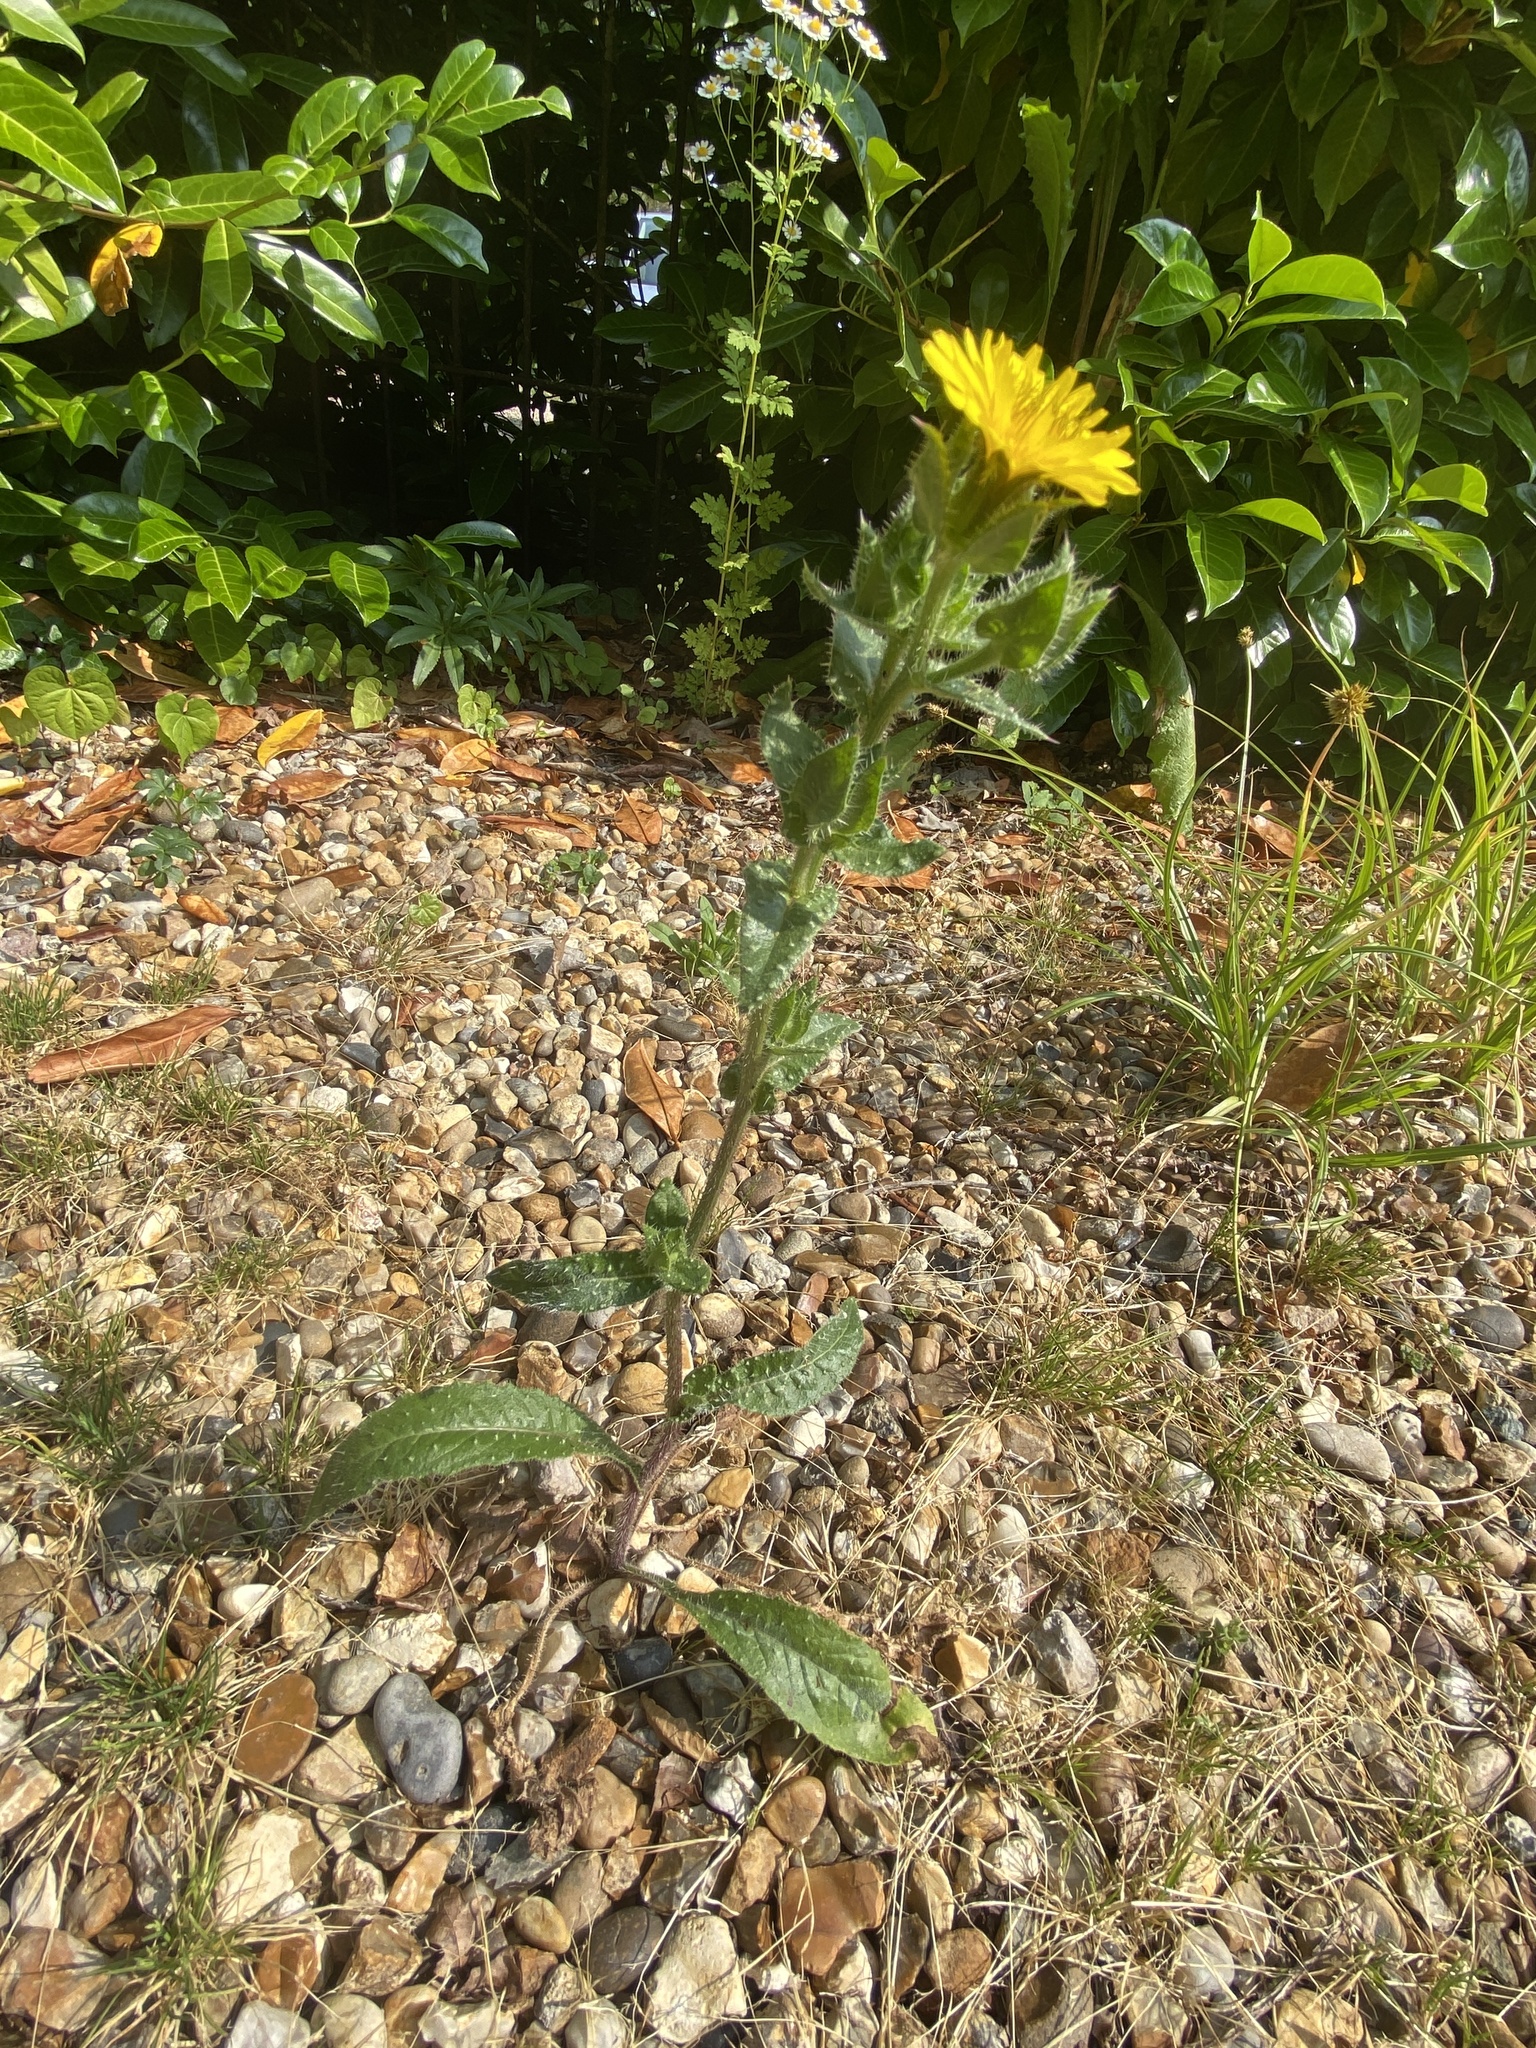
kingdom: Plantae
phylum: Tracheophyta
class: Magnoliopsida
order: Asterales
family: Asteraceae
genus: Helminthotheca
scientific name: Helminthotheca echioides
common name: Ox-tongue
